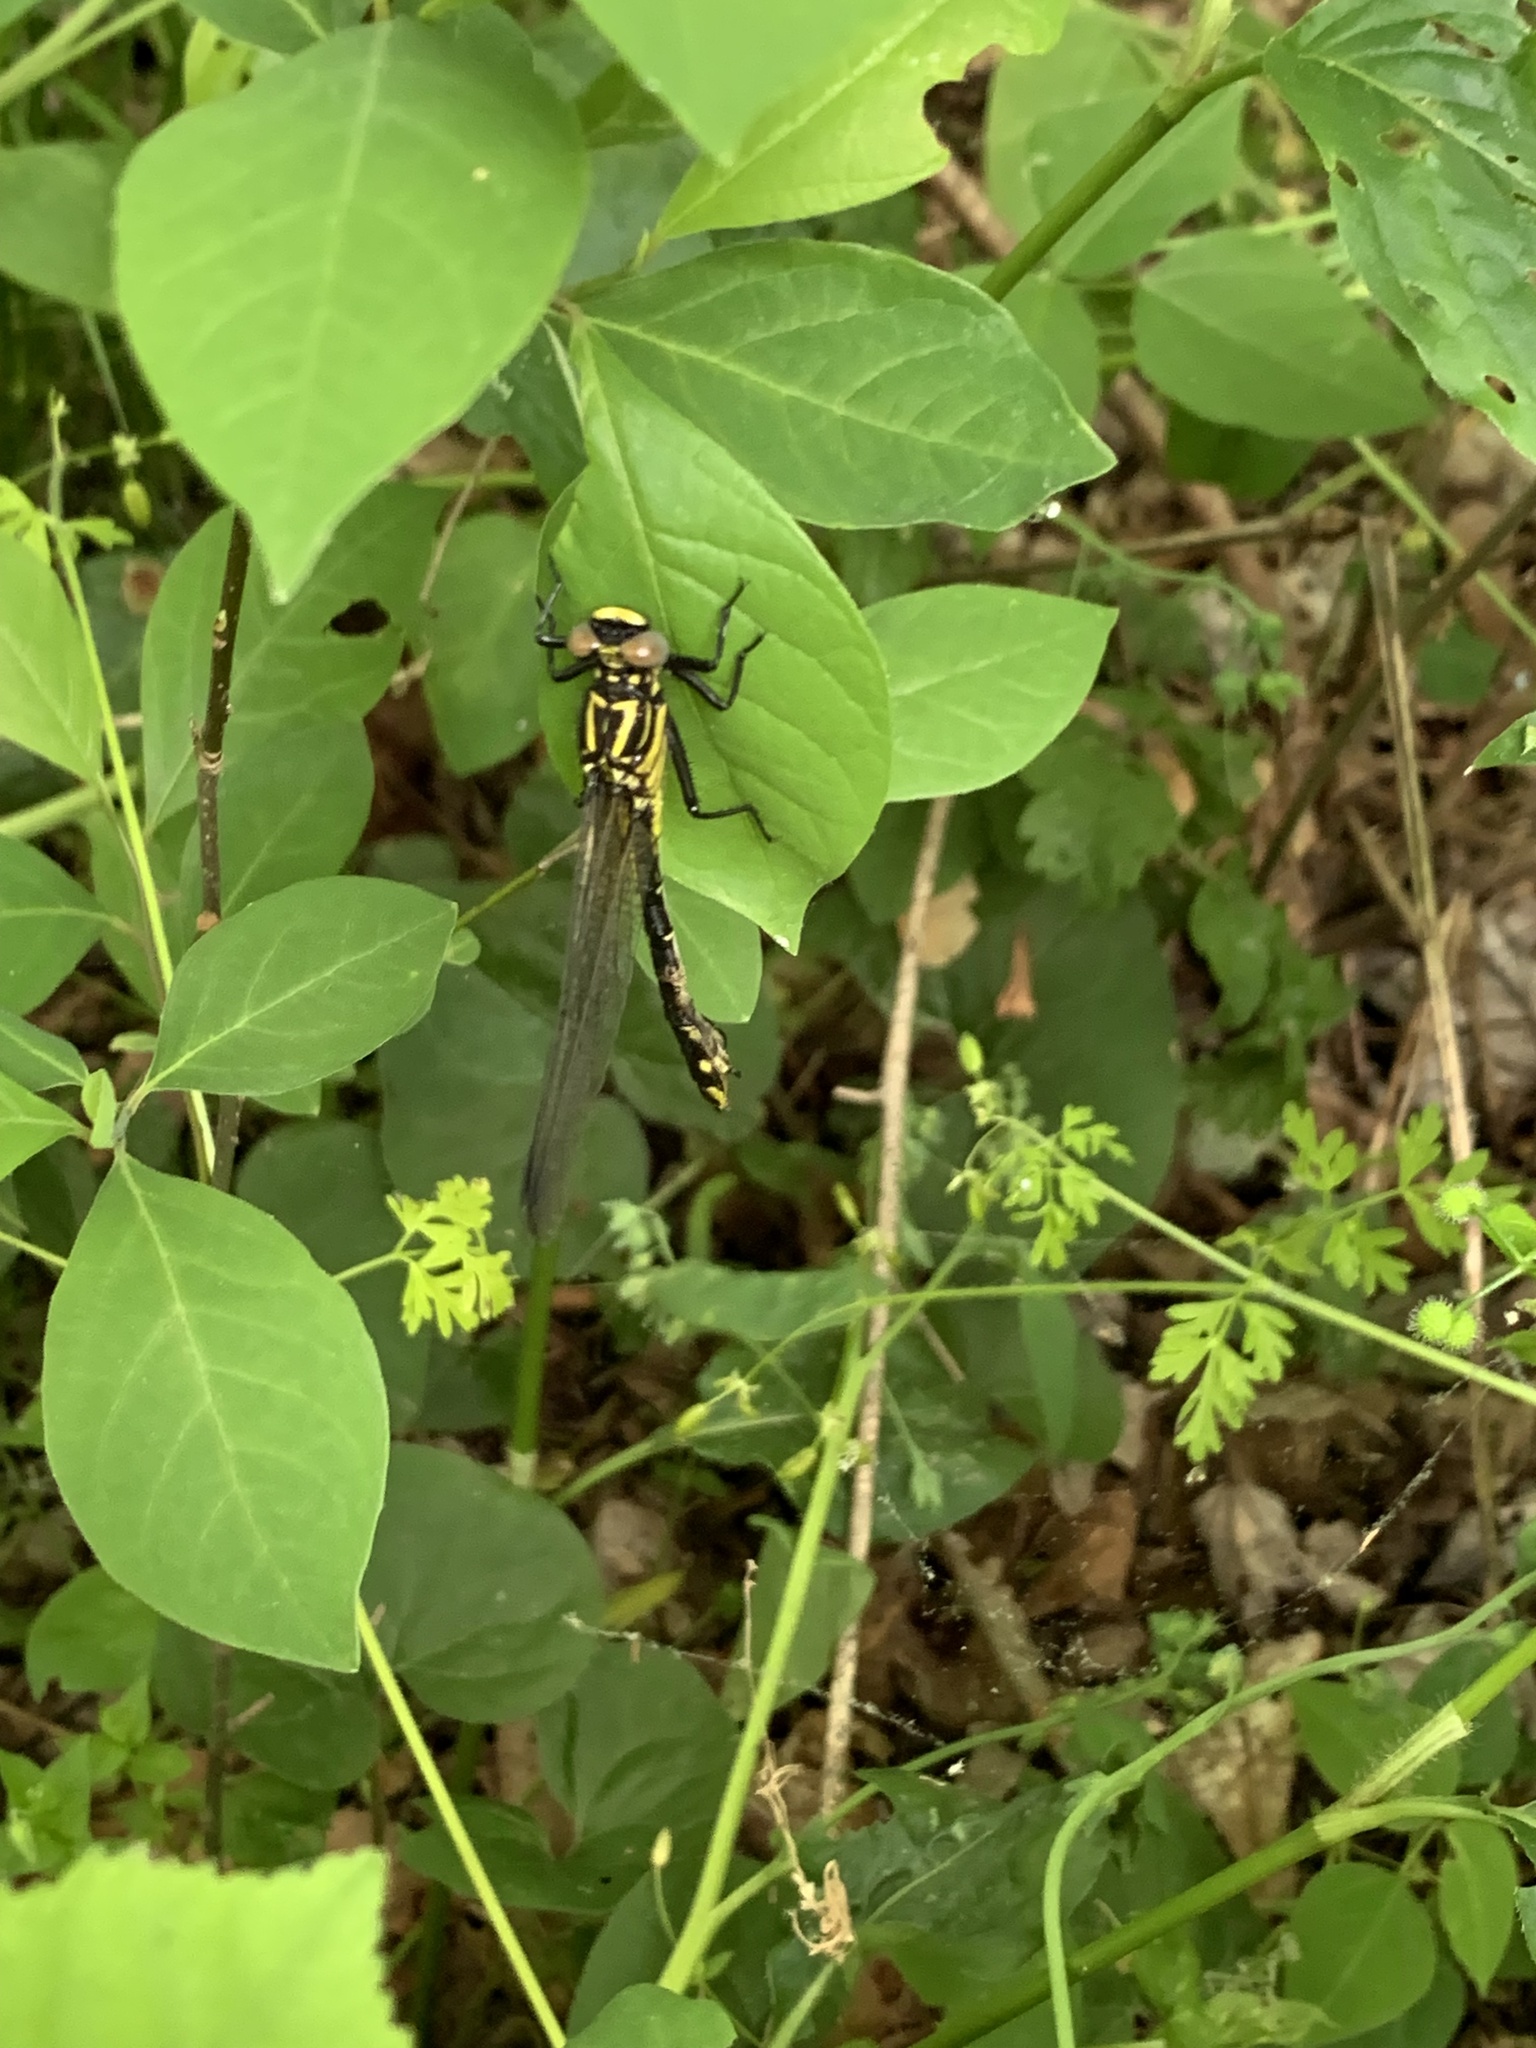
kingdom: Animalia
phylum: Arthropoda
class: Insecta
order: Odonata
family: Gomphidae
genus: Gomphurus
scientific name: Gomphurus vastus
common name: Cobra clubtail
